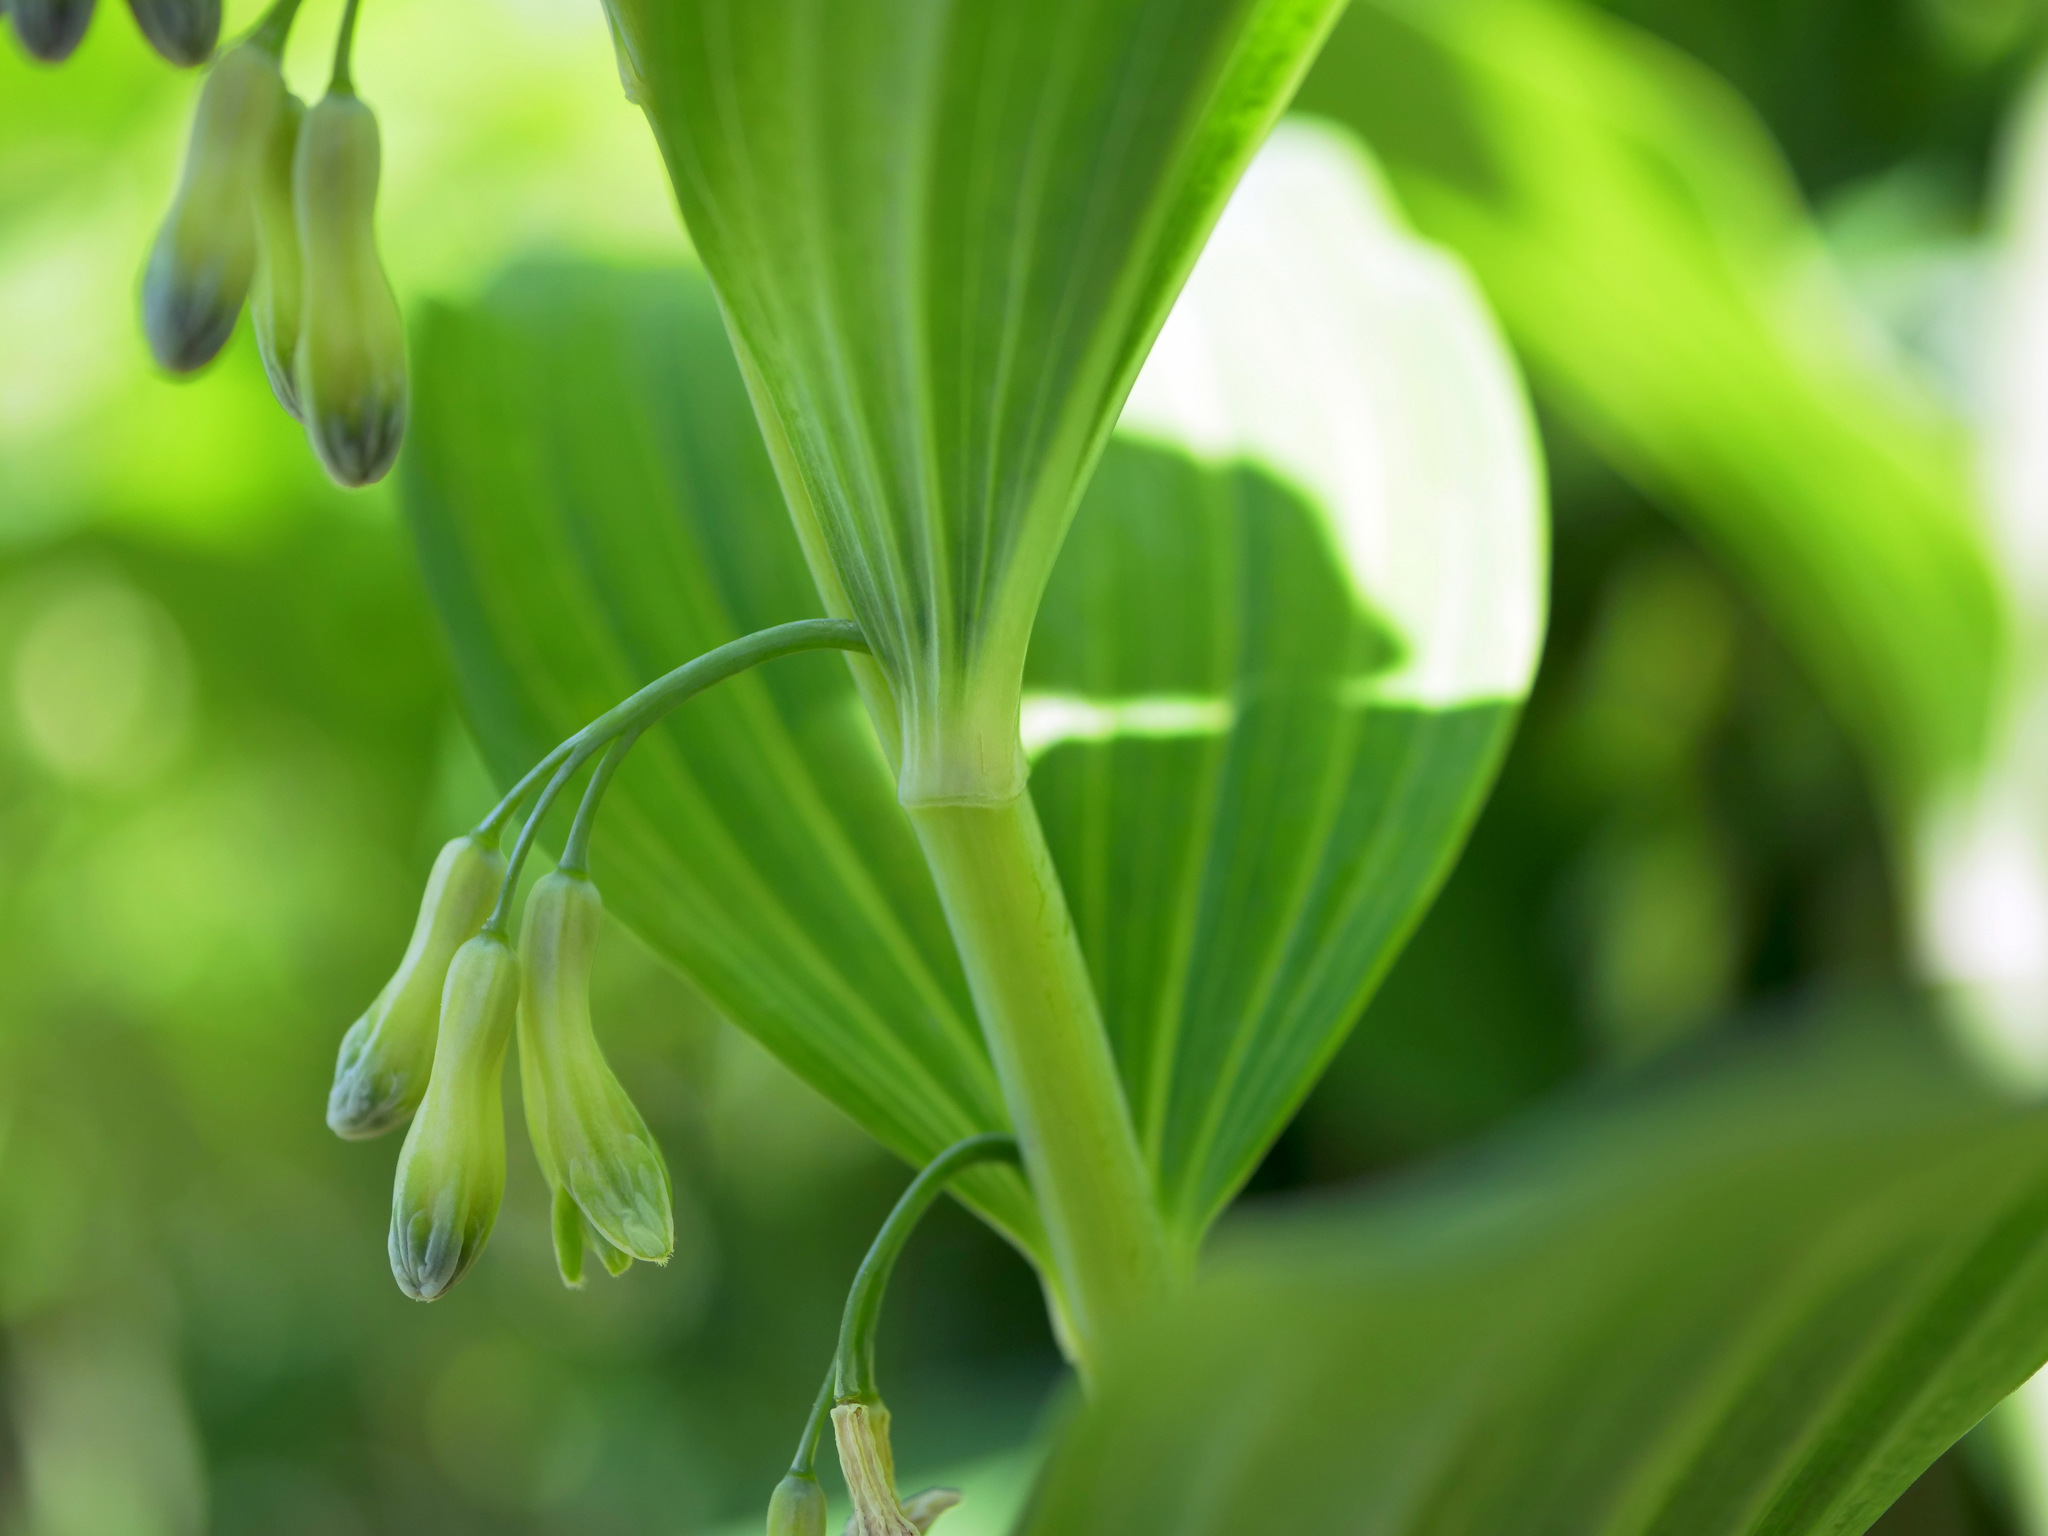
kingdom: Plantae
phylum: Tracheophyta
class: Liliopsida
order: Asparagales
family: Asparagaceae
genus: Polygonatum
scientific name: Polygonatum multiflorum
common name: Solomon's-seal
